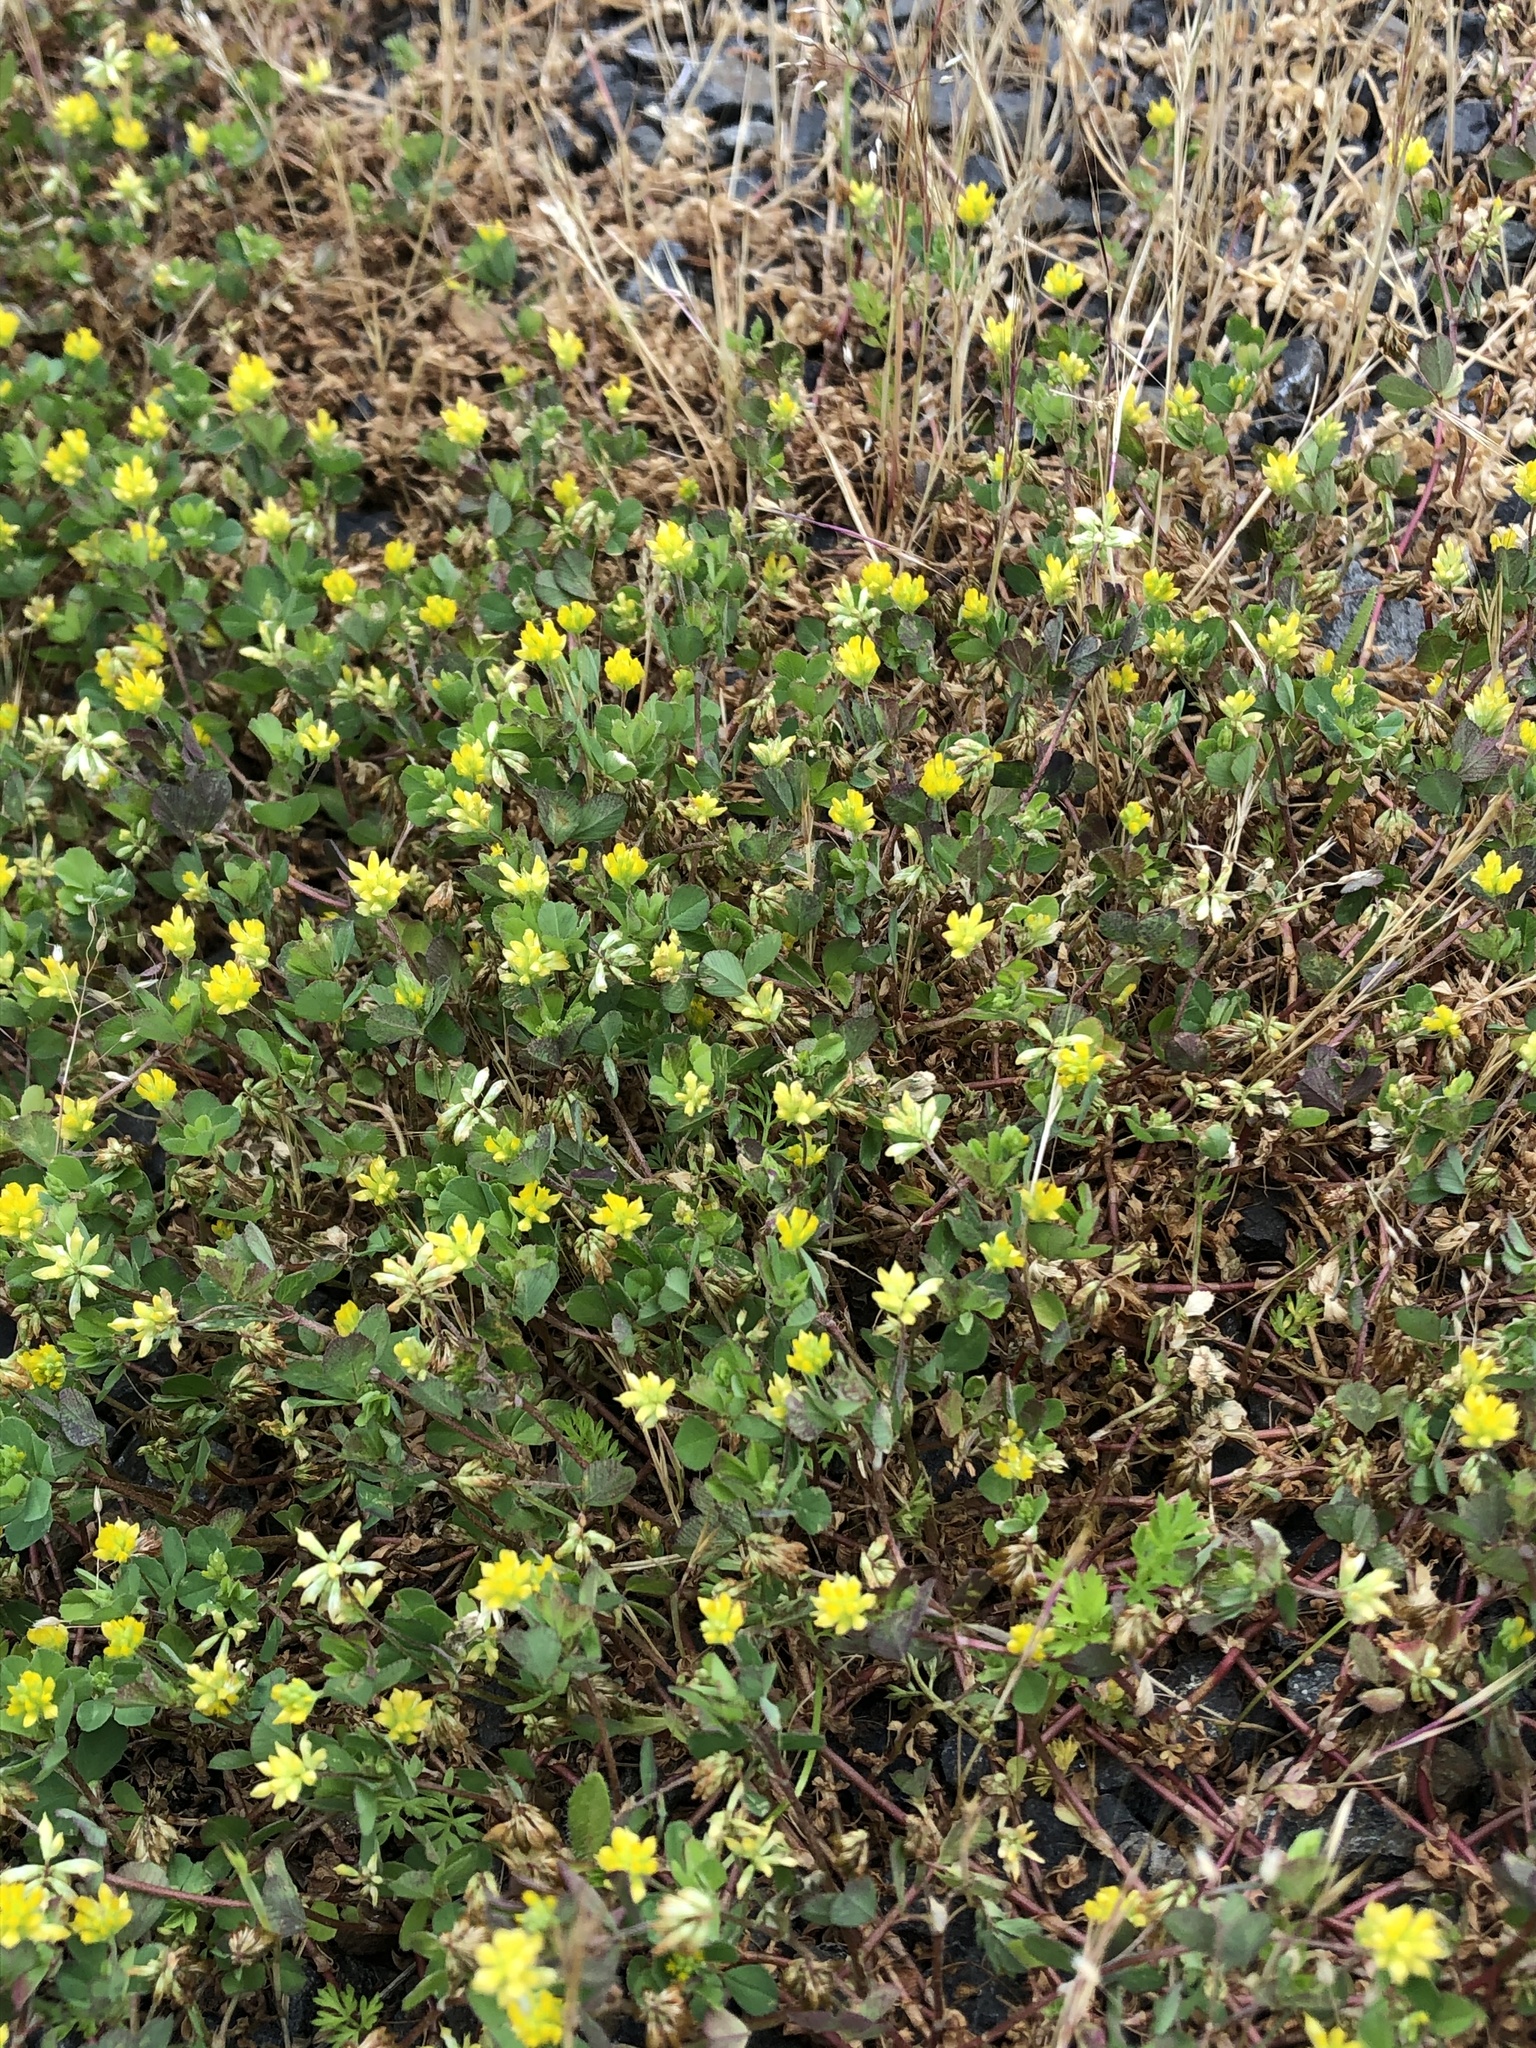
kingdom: Plantae
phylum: Tracheophyta
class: Magnoliopsida
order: Fabales
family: Fabaceae
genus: Trifolium
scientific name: Trifolium dubium
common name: Suckling clover
